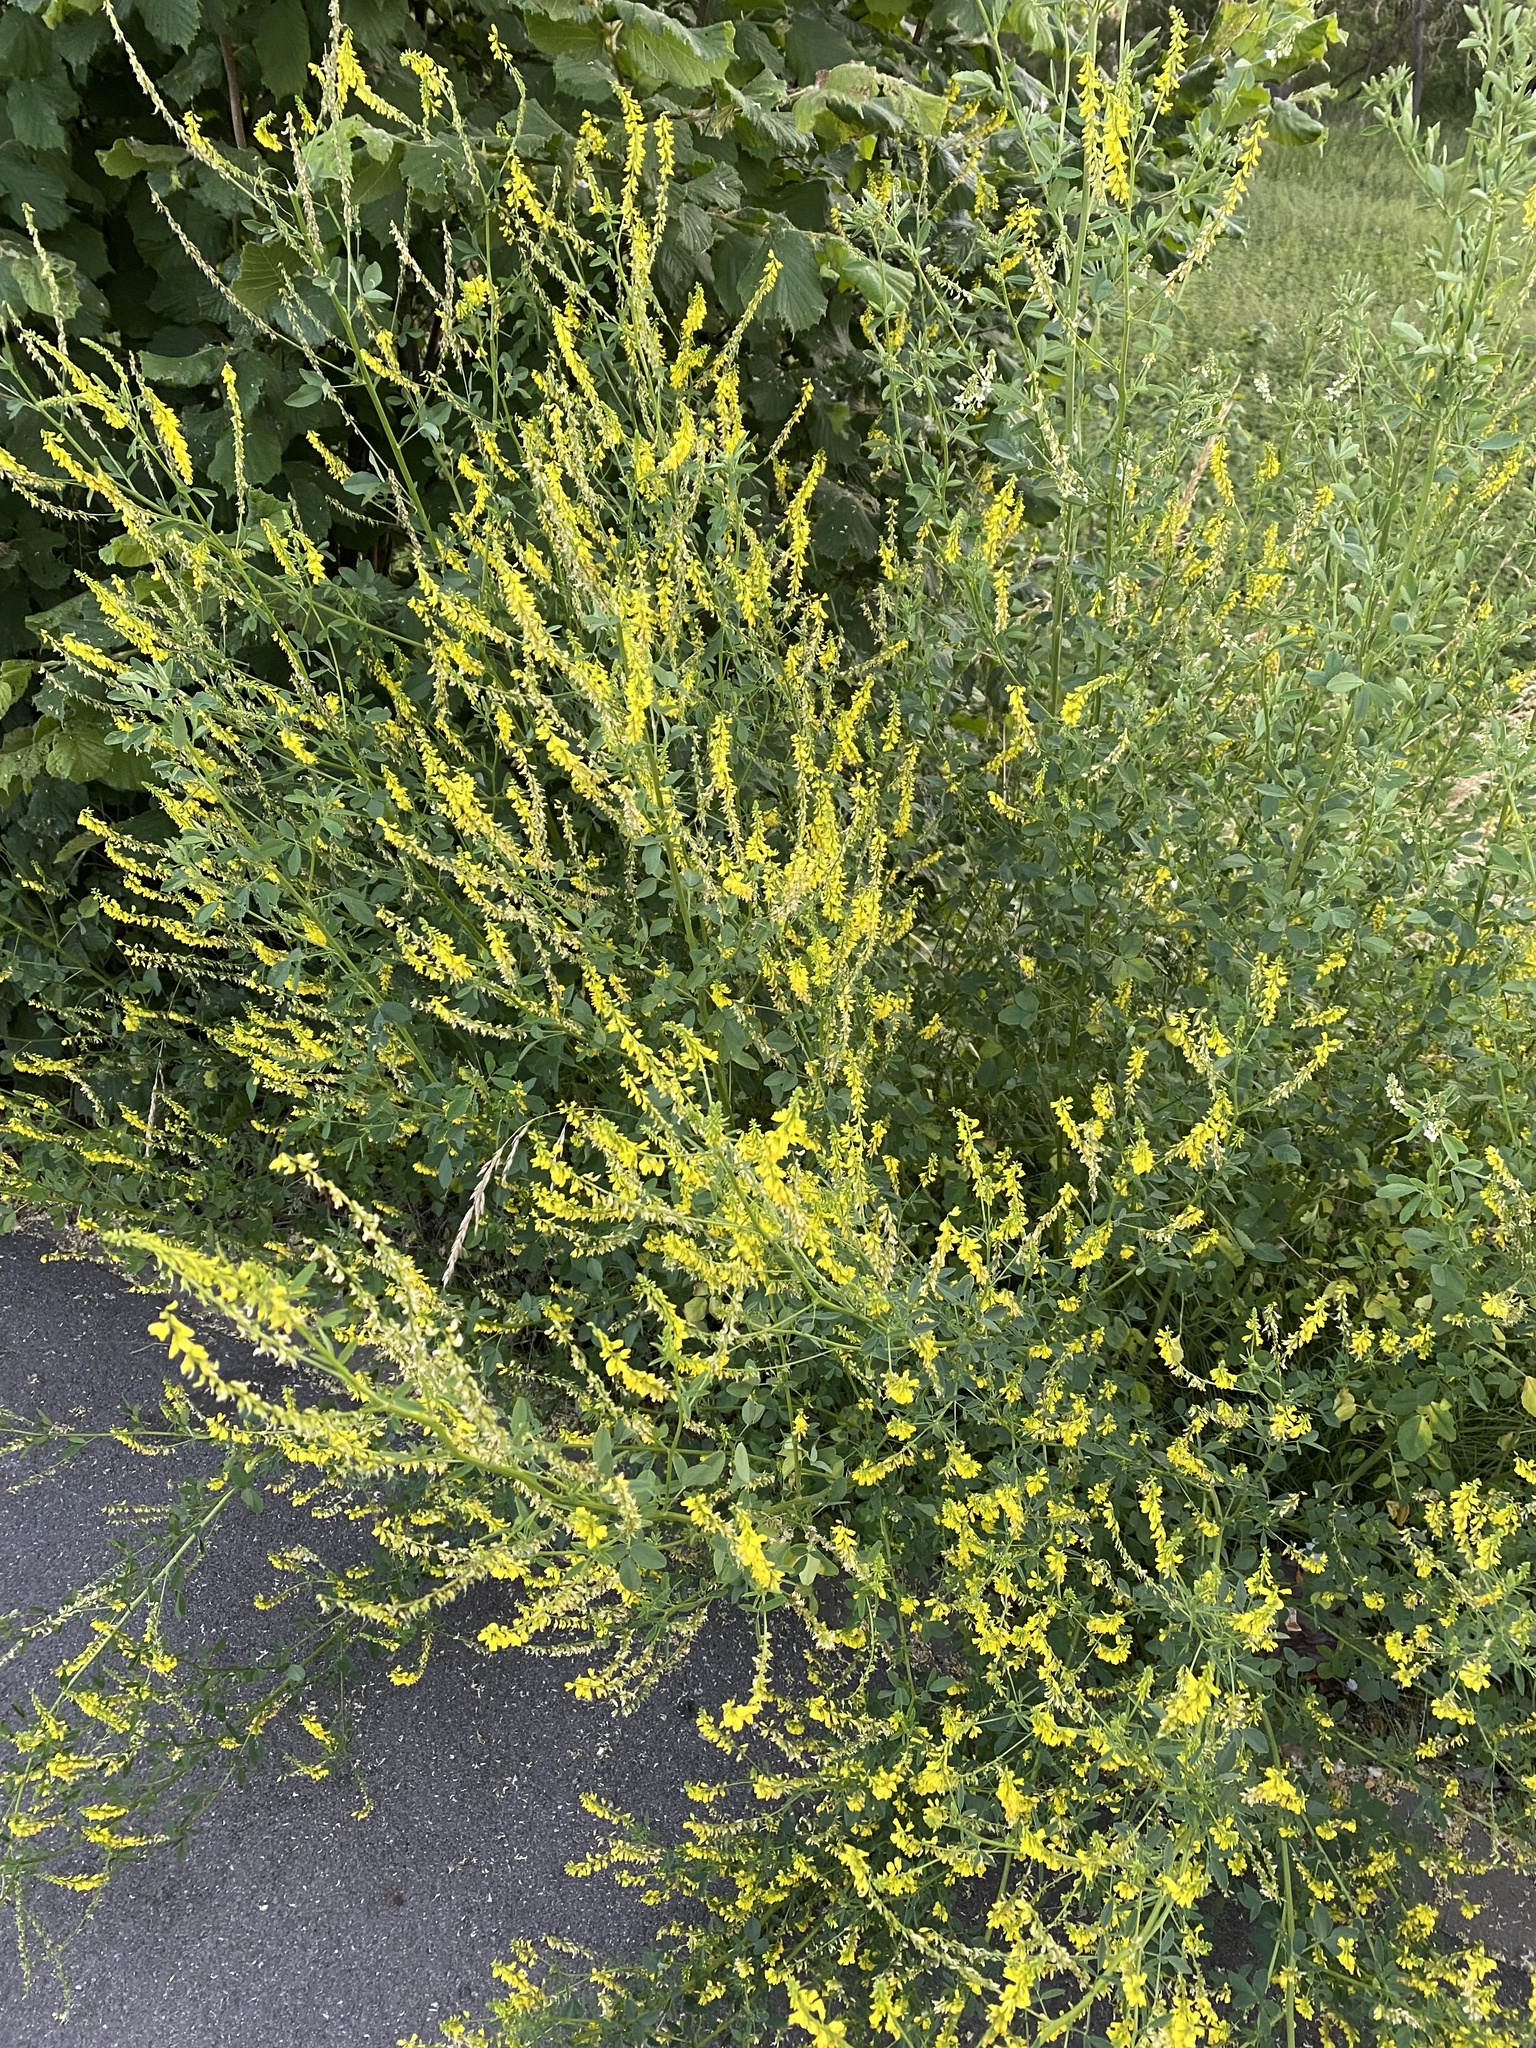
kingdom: Plantae
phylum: Tracheophyta
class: Magnoliopsida
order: Fabales
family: Fabaceae
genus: Melilotus
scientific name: Melilotus officinalis
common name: Sweetclover
